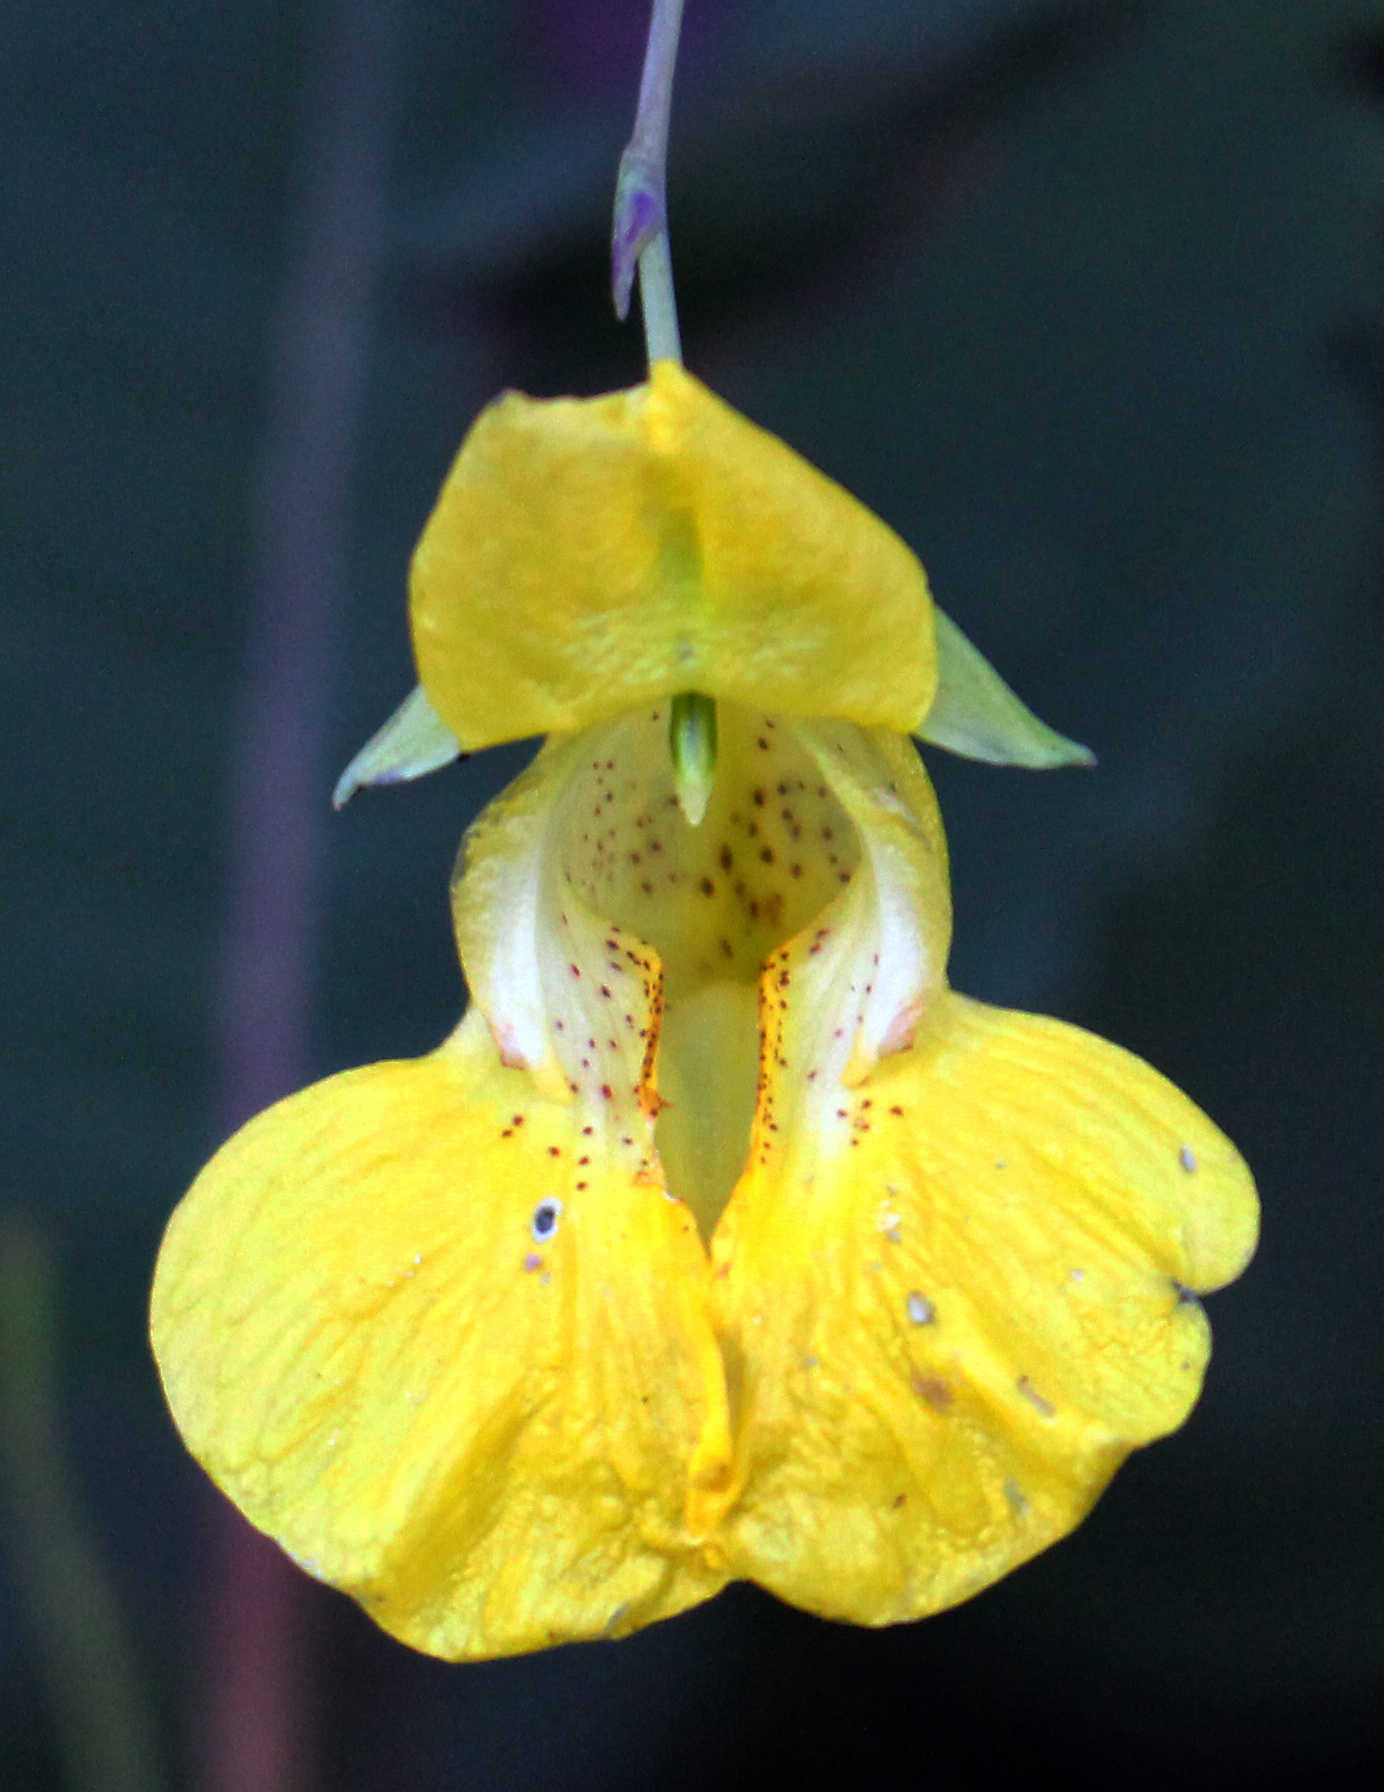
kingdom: Plantae
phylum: Tracheophyta
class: Magnoliopsida
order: Ericales
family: Balsaminaceae
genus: Impatiens
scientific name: Impatiens pallida
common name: Pale snapweed
